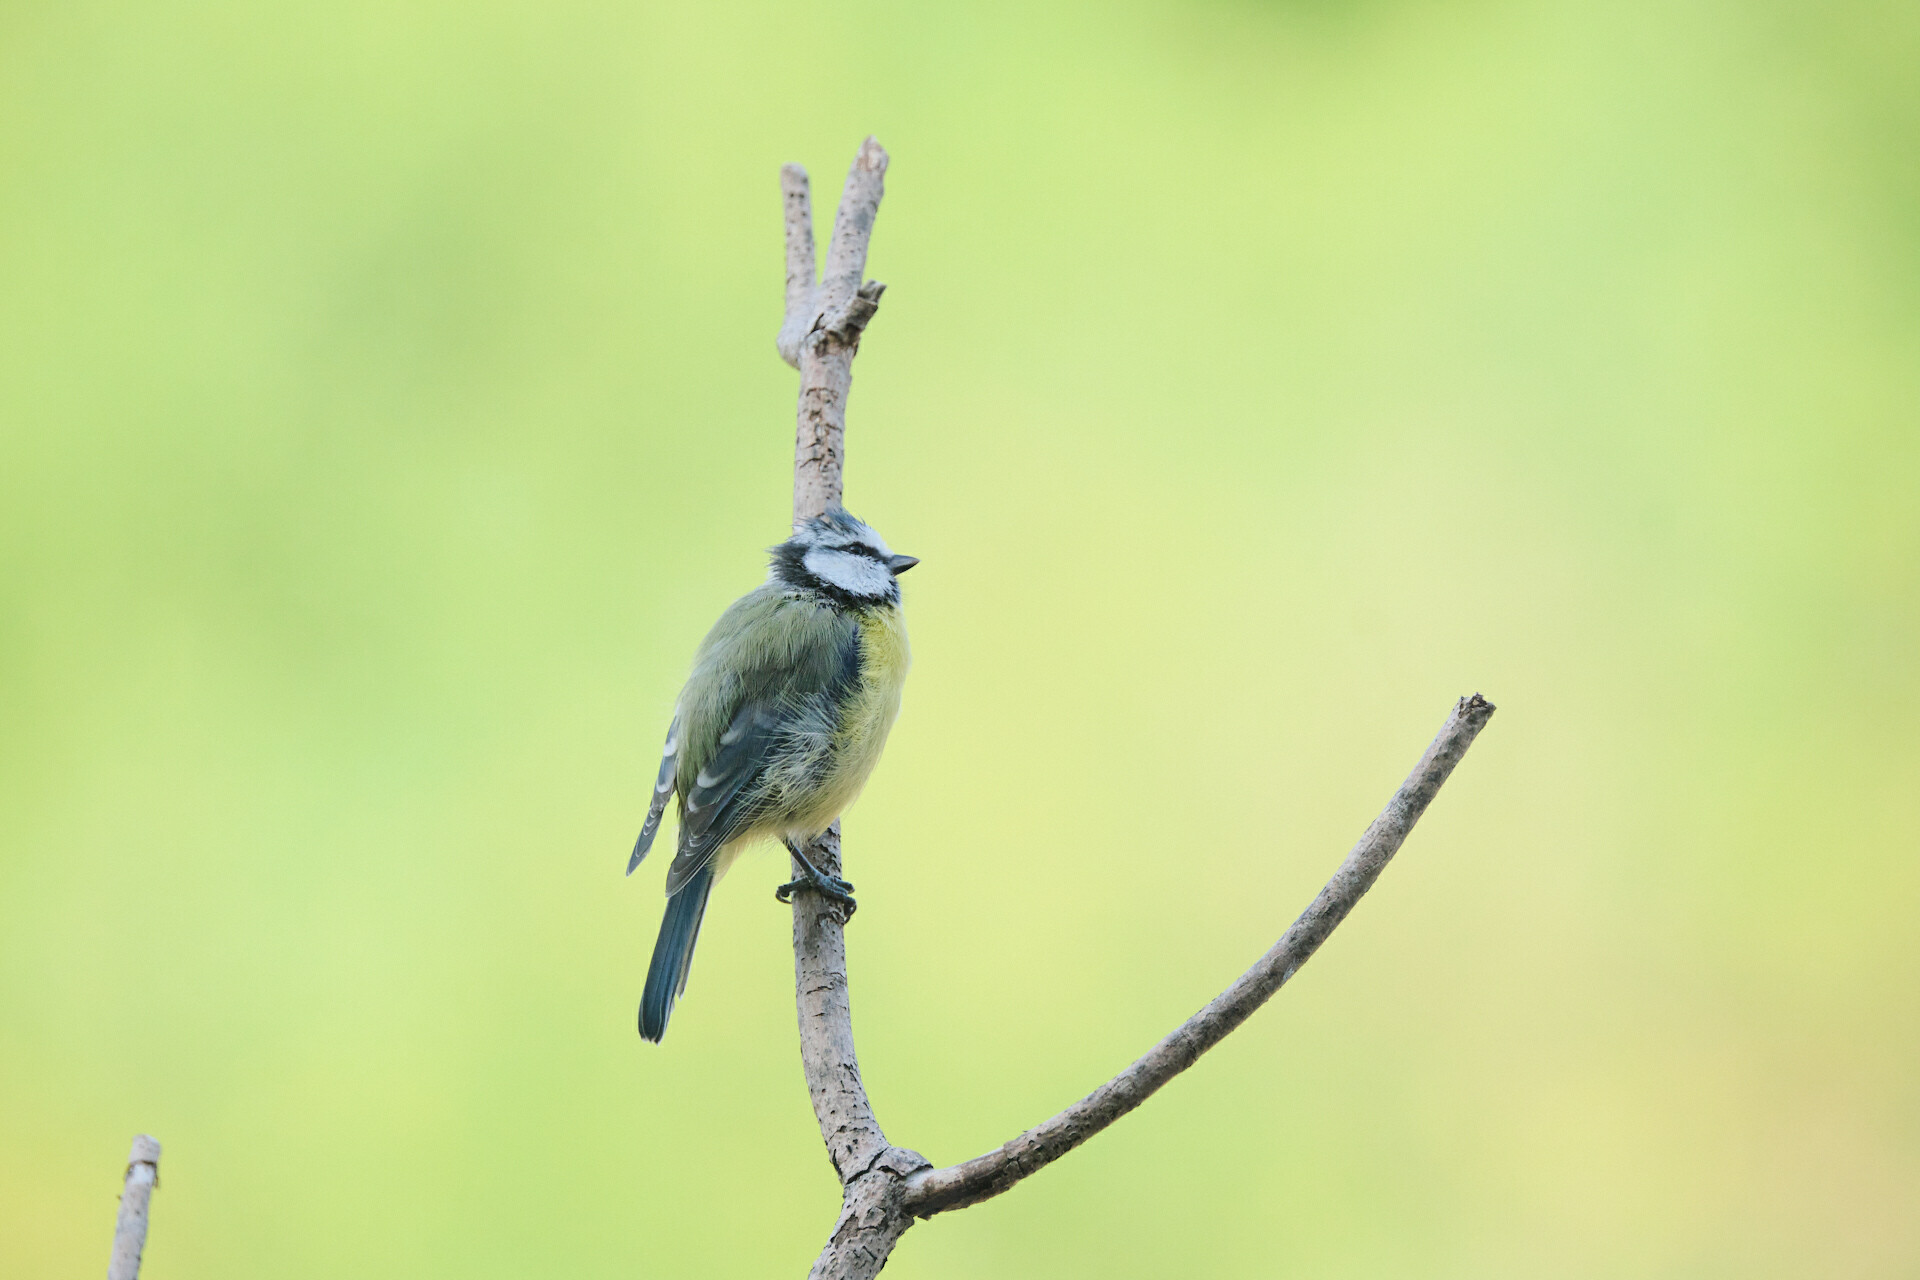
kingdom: Animalia
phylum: Chordata
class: Aves
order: Passeriformes
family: Paridae
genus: Cyanistes
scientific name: Cyanistes caeruleus
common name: Eurasian blue tit
